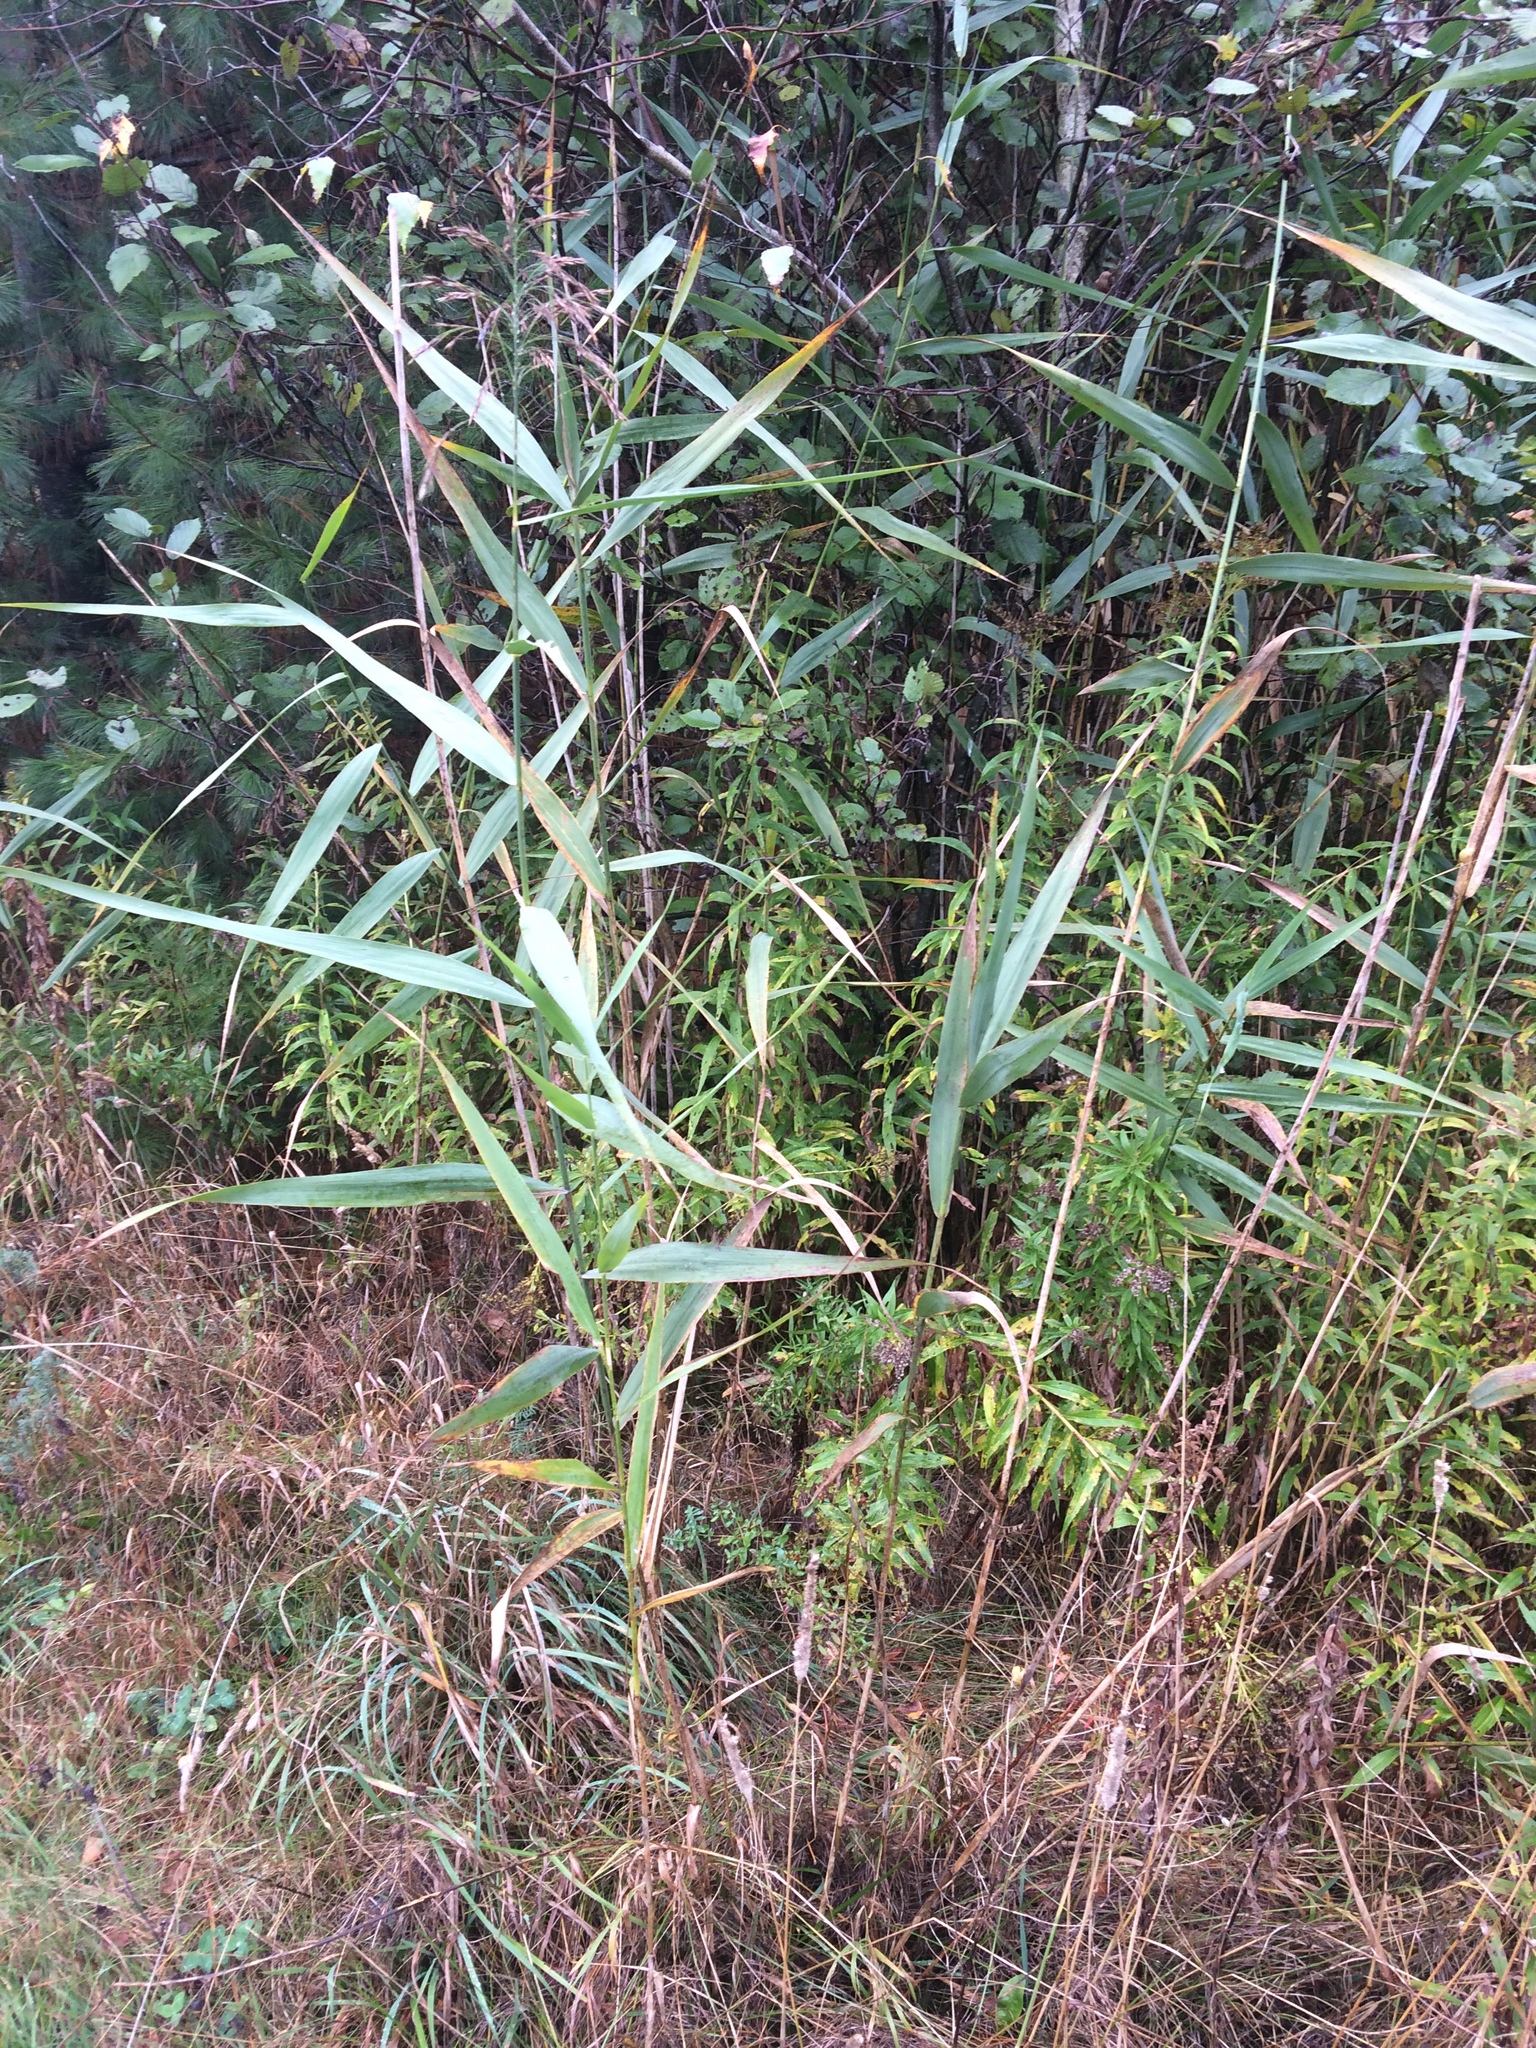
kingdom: Plantae
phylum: Tracheophyta
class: Liliopsida
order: Poales
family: Poaceae
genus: Phragmites
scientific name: Phragmites australis
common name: Common reed
